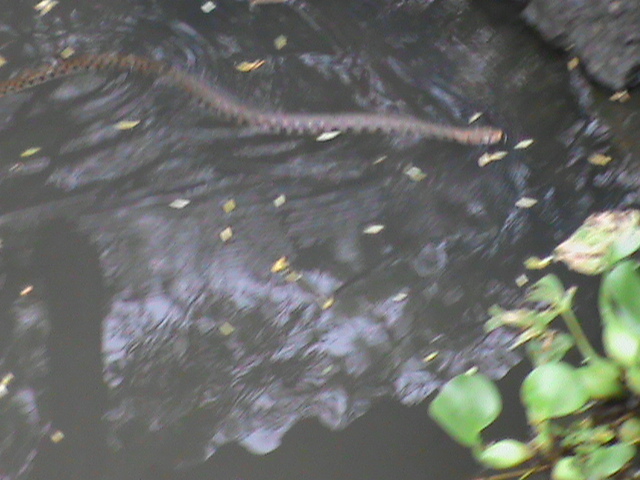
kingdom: Animalia
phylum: Chordata
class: Squamata
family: Colubridae
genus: Fowlea
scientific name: Fowlea piscator
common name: Asiatic water snake
